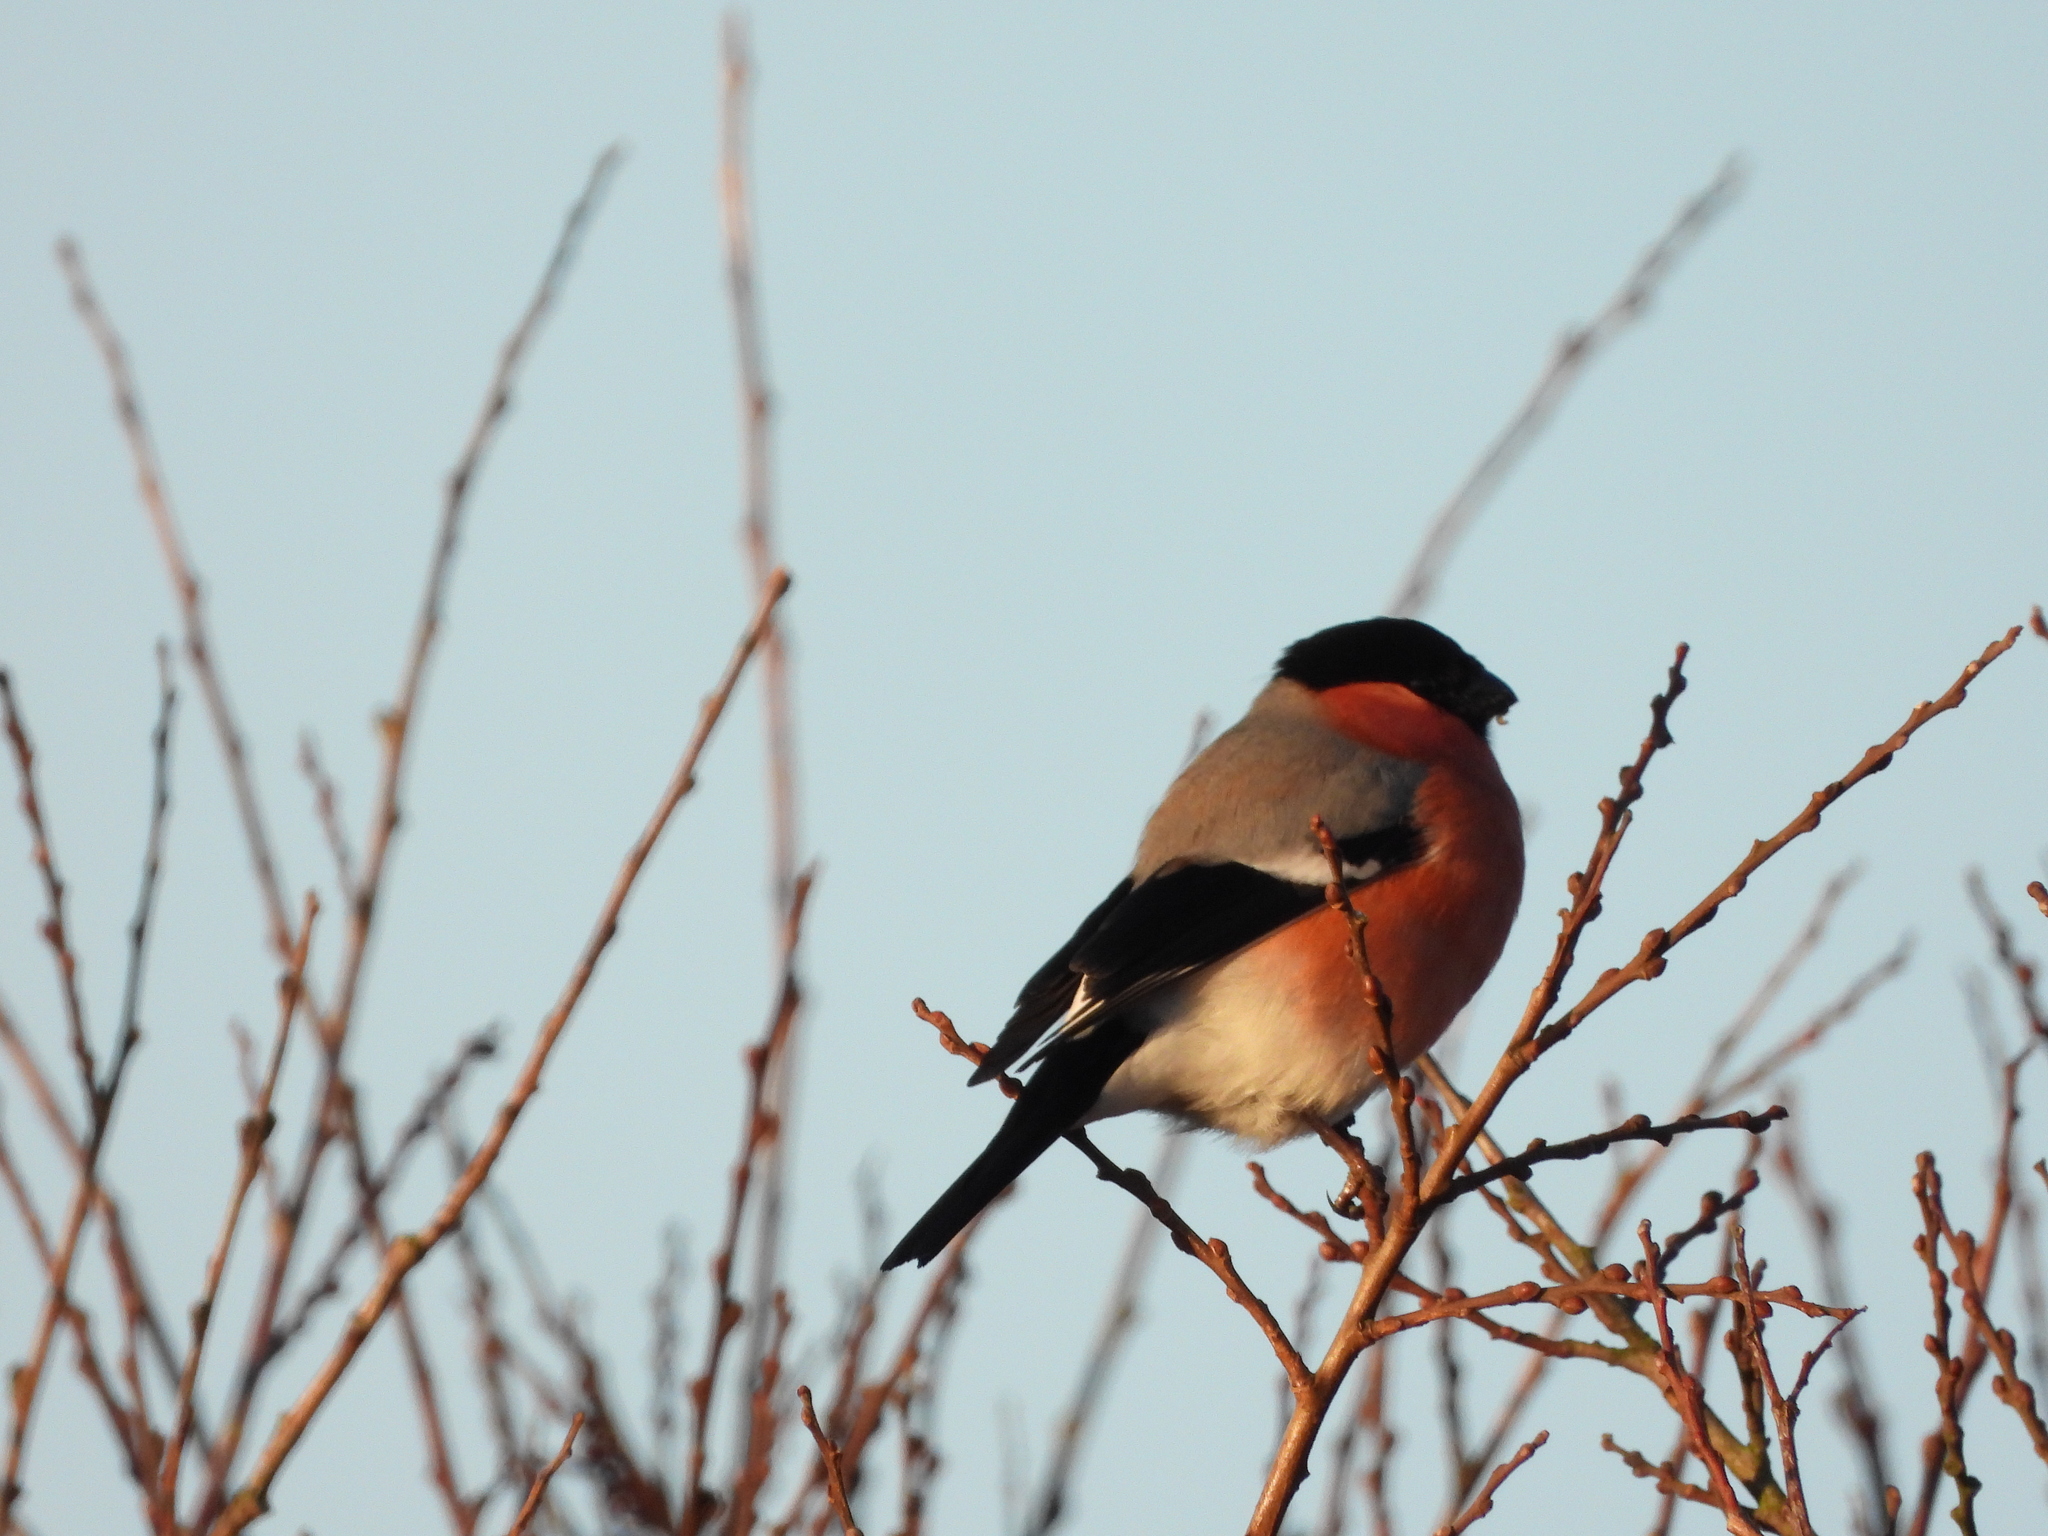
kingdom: Animalia
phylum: Chordata
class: Aves
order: Passeriformes
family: Fringillidae
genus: Pyrrhula
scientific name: Pyrrhula pyrrhula
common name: Eurasian bullfinch
